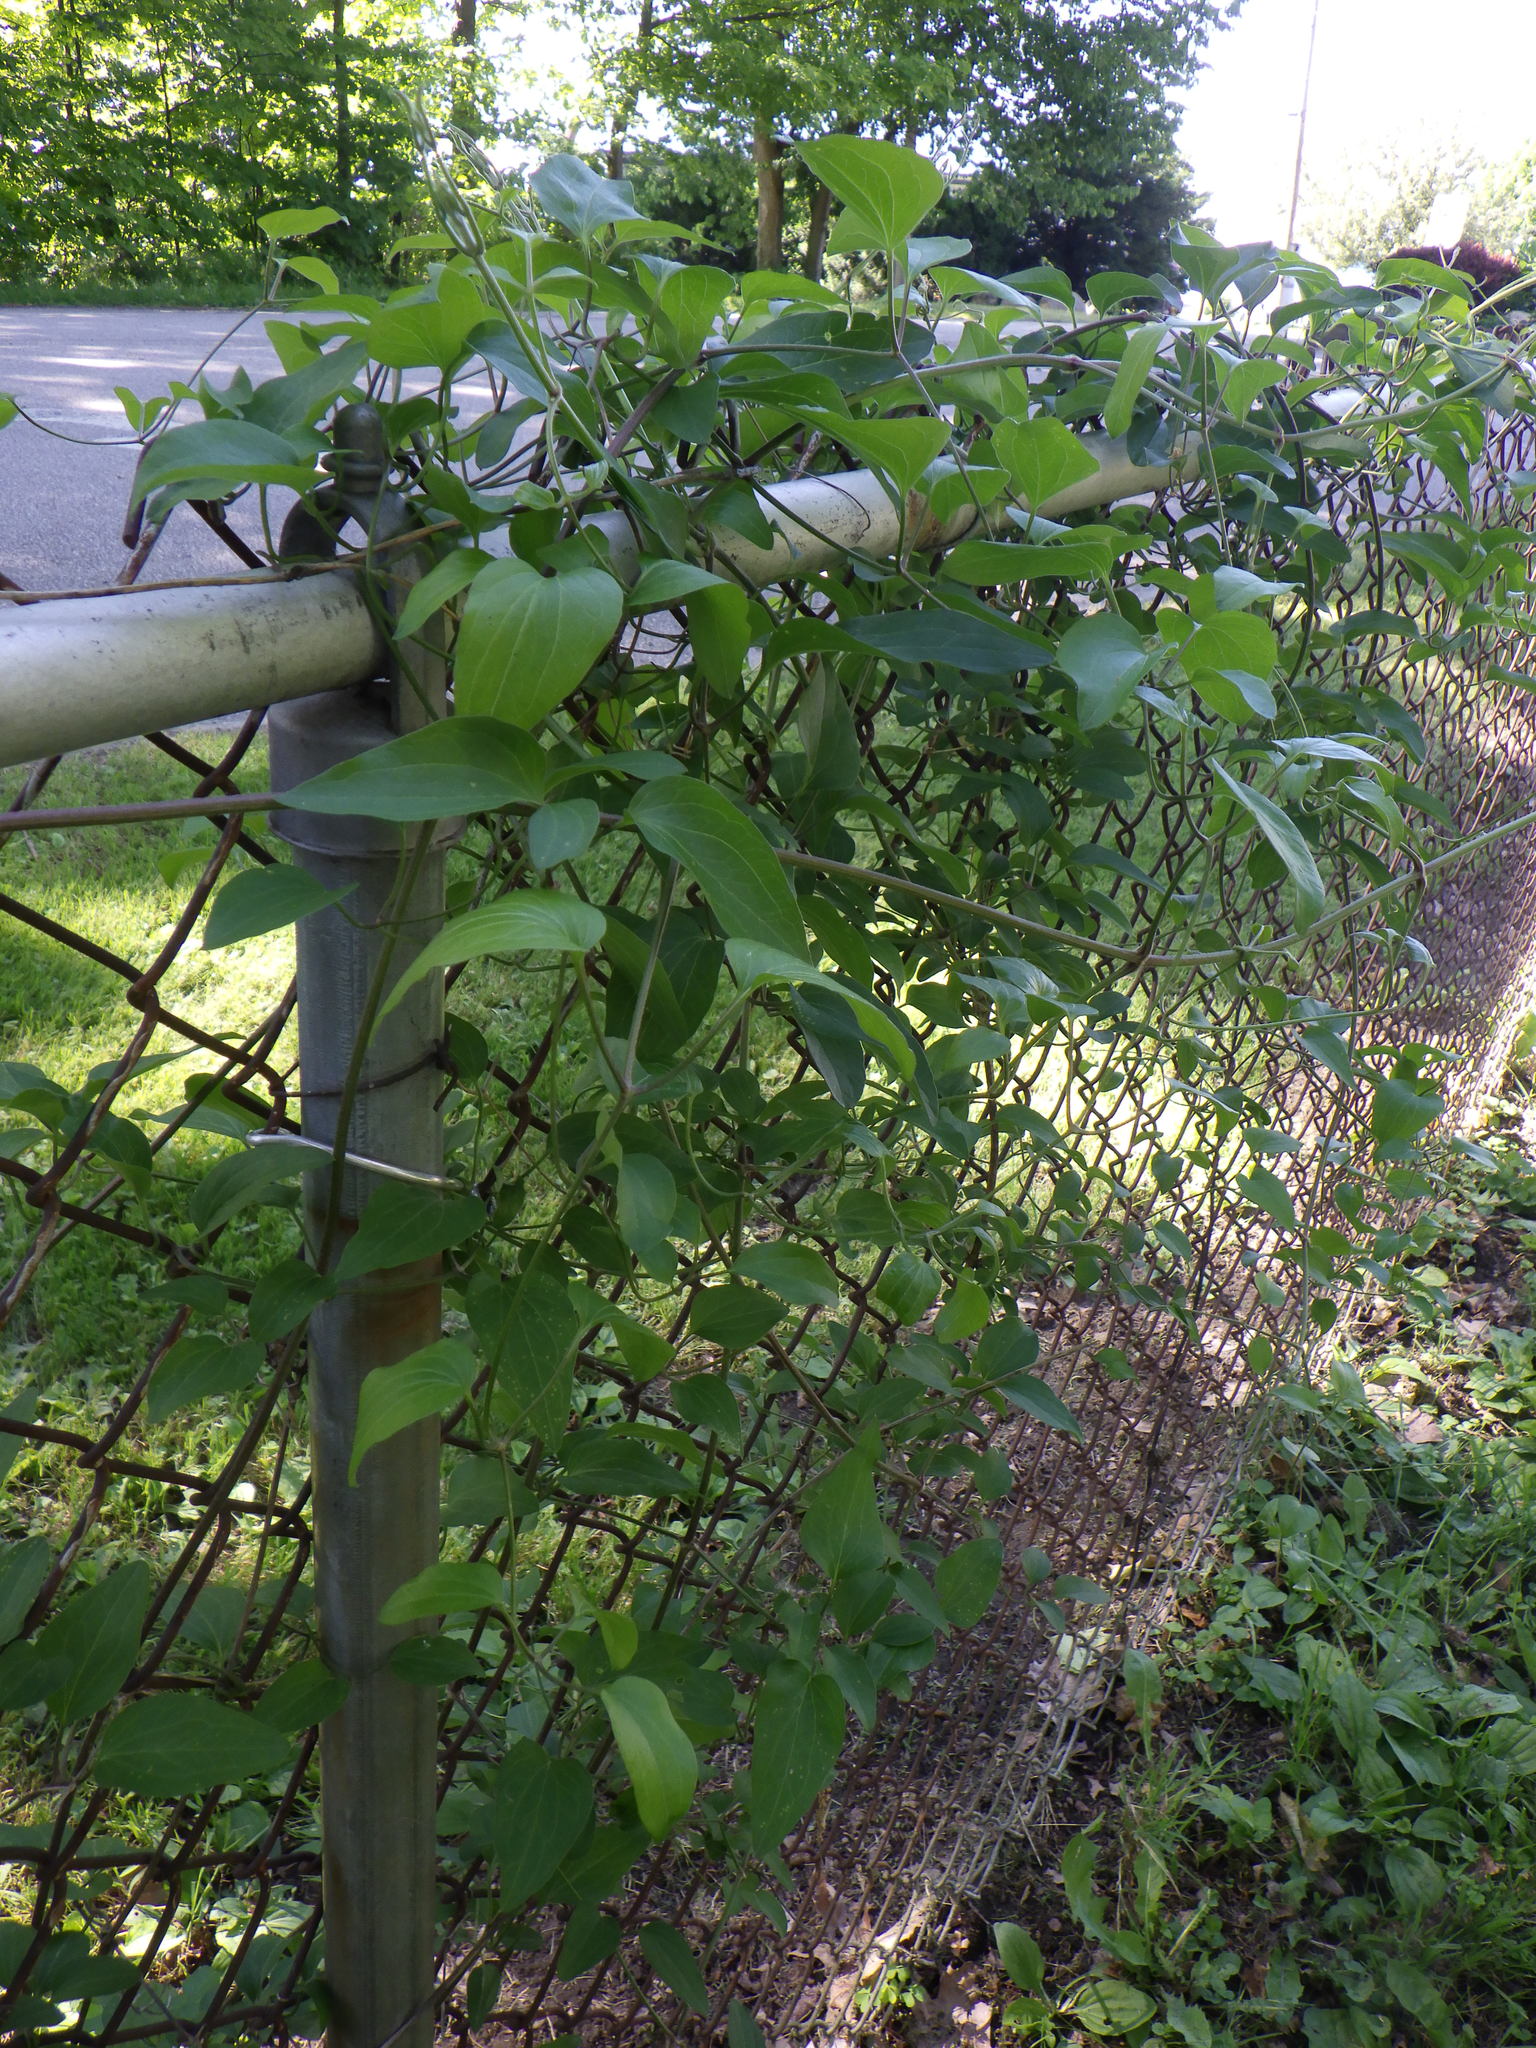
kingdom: Plantae
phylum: Tracheophyta
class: Magnoliopsida
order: Ranunculales
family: Ranunculaceae
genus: Clematis
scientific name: Clematis terniflora
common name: Sweet autumn clematis
